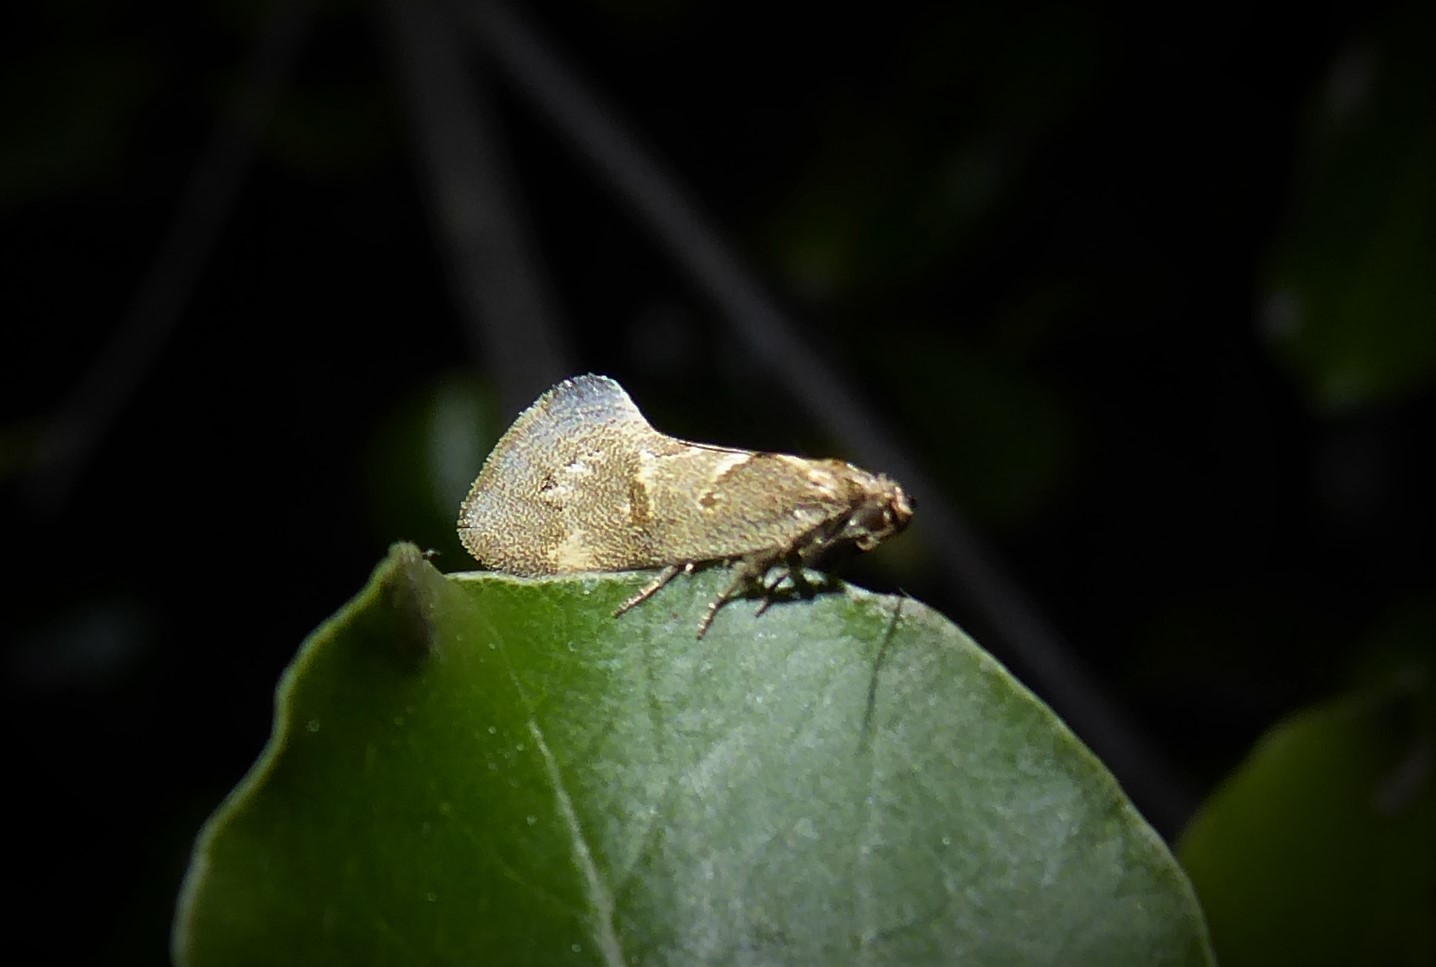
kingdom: Animalia
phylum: Arthropoda
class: Insecta
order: Lepidoptera
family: Oecophoridae
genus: Tingena
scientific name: Tingena brachyacma
